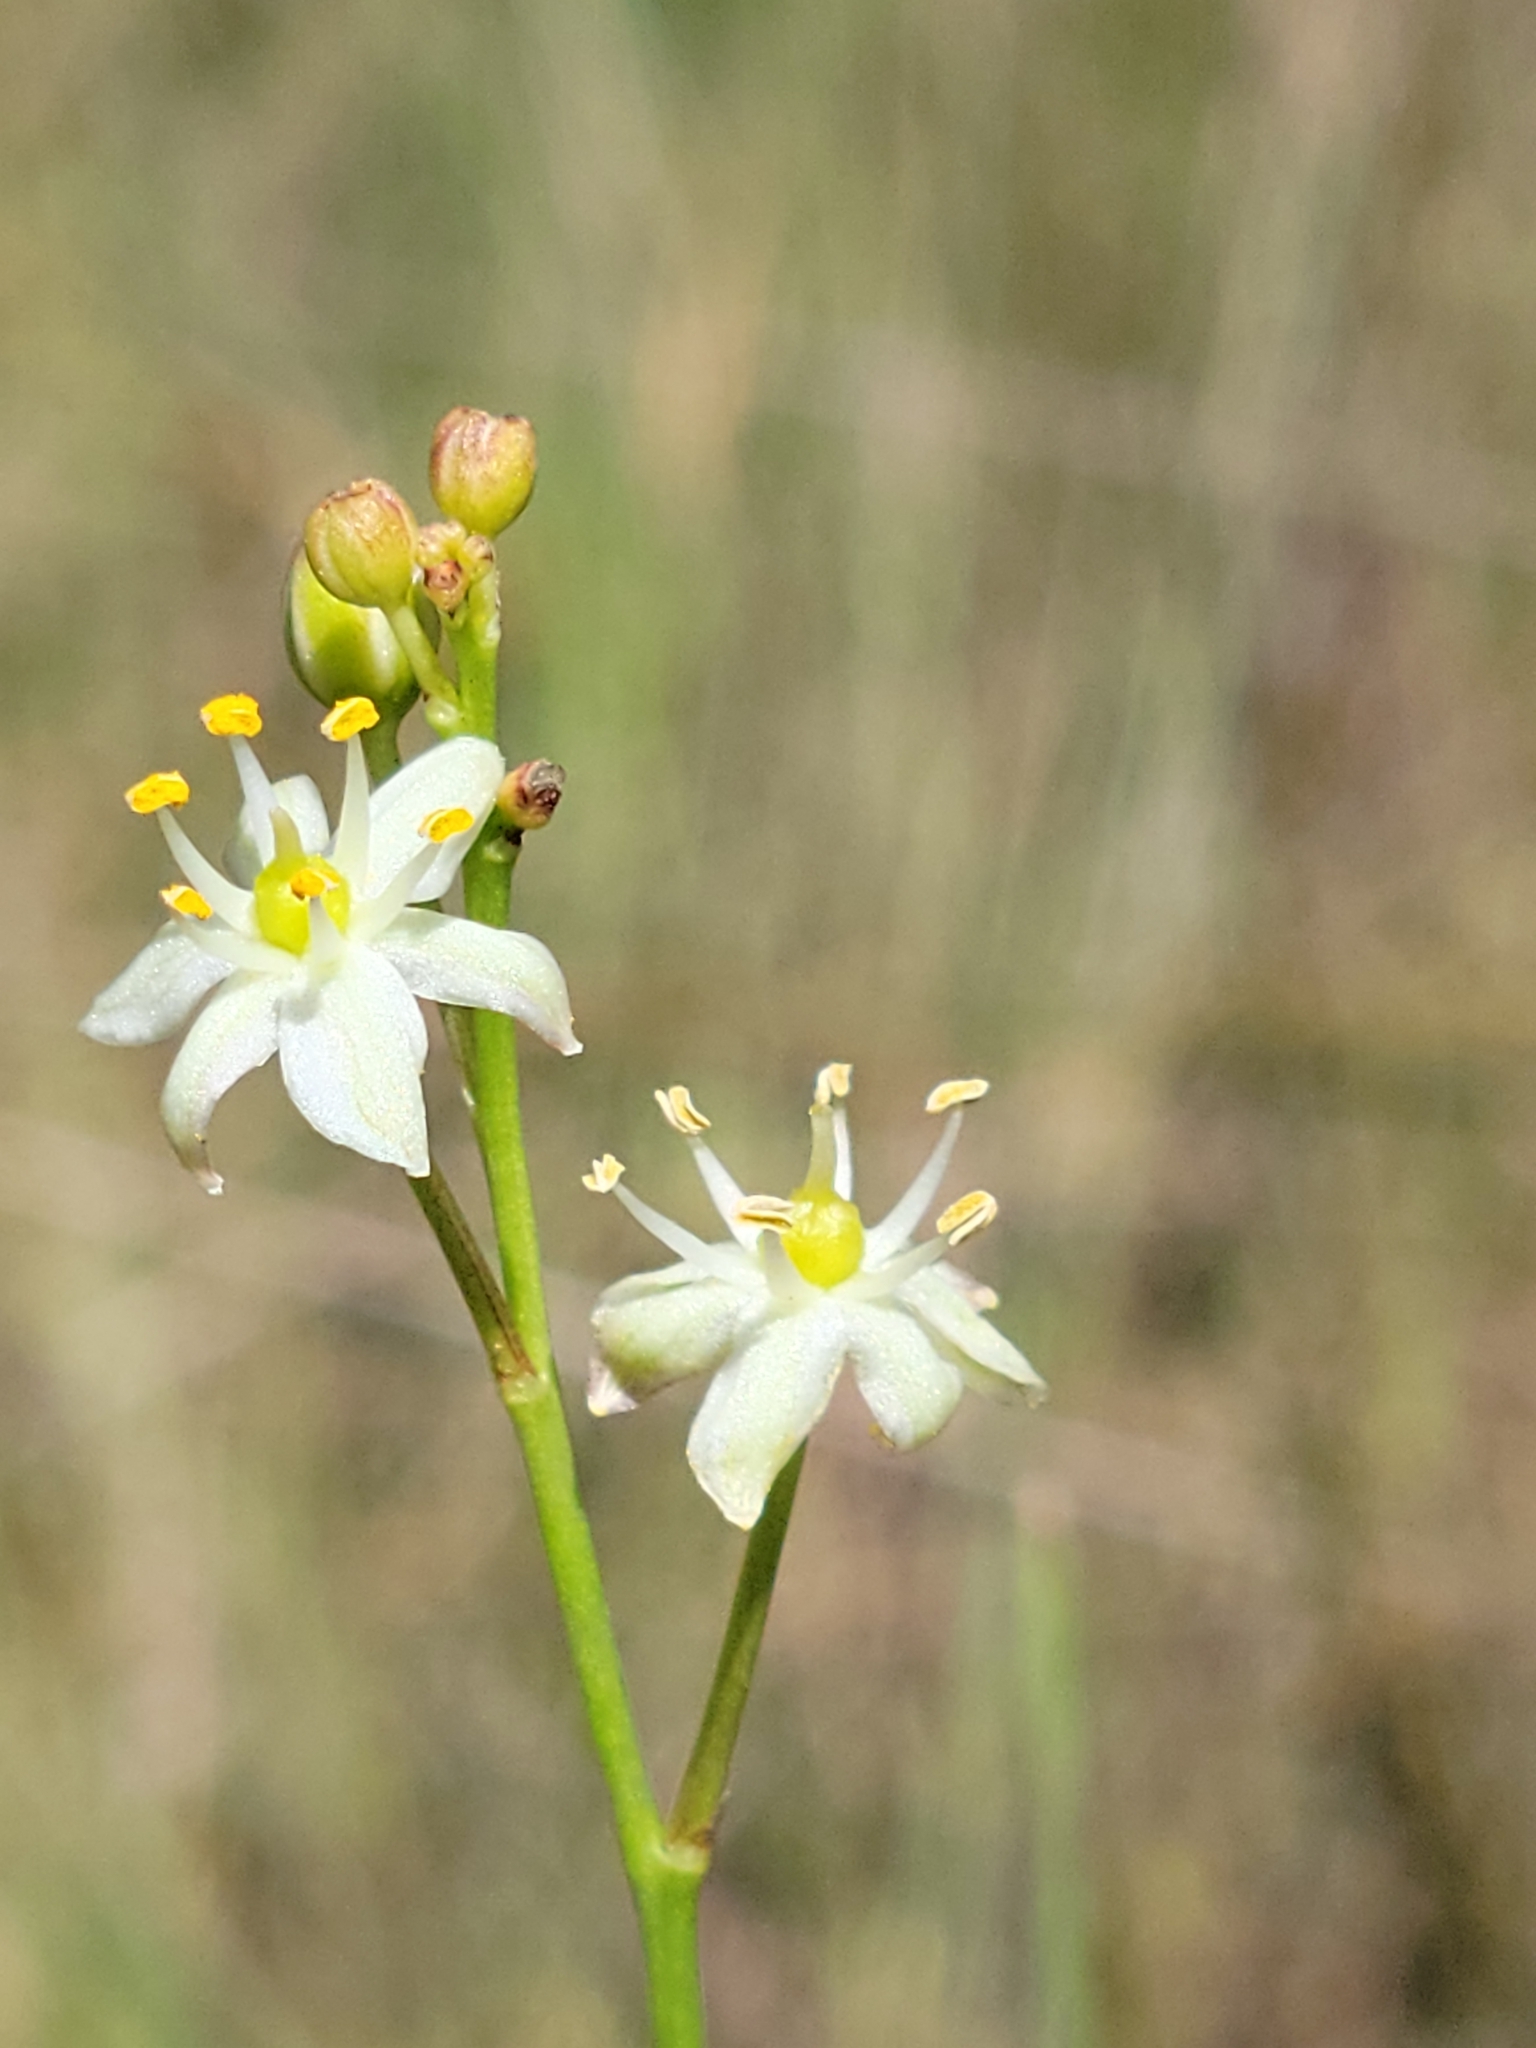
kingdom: Plantae
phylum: Tracheophyta
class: Liliopsida
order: Asparagales
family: Asparagaceae
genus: Schoenolirion
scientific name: Schoenolirion albiflorum
